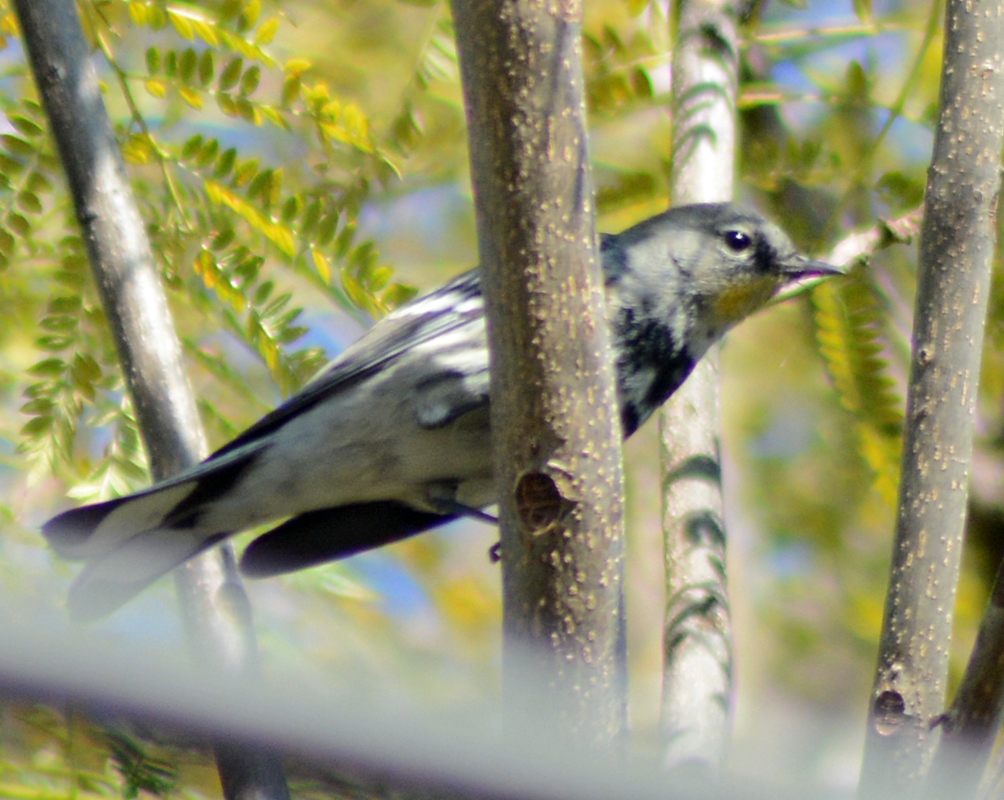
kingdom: Animalia
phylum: Chordata
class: Aves
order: Passeriformes
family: Parulidae
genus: Setophaga
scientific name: Setophaga coronata
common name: Myrtle warbler
